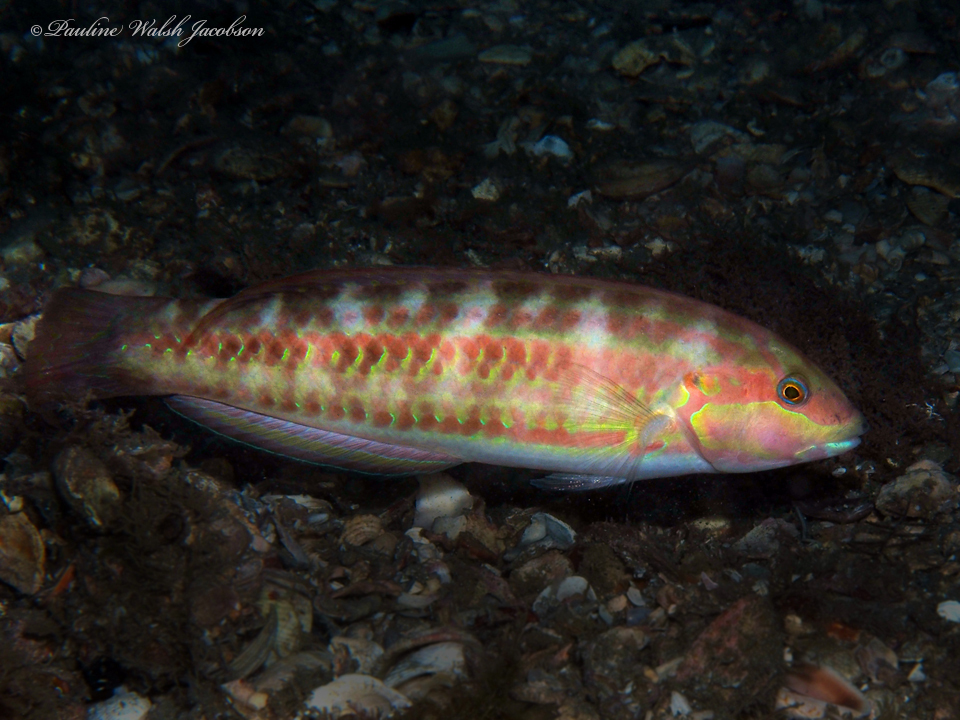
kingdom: Animalia
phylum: Chordata
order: Perciformes
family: Labridae
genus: Halichoeres
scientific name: Halichoeres bivittatus
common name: Slippery dick
